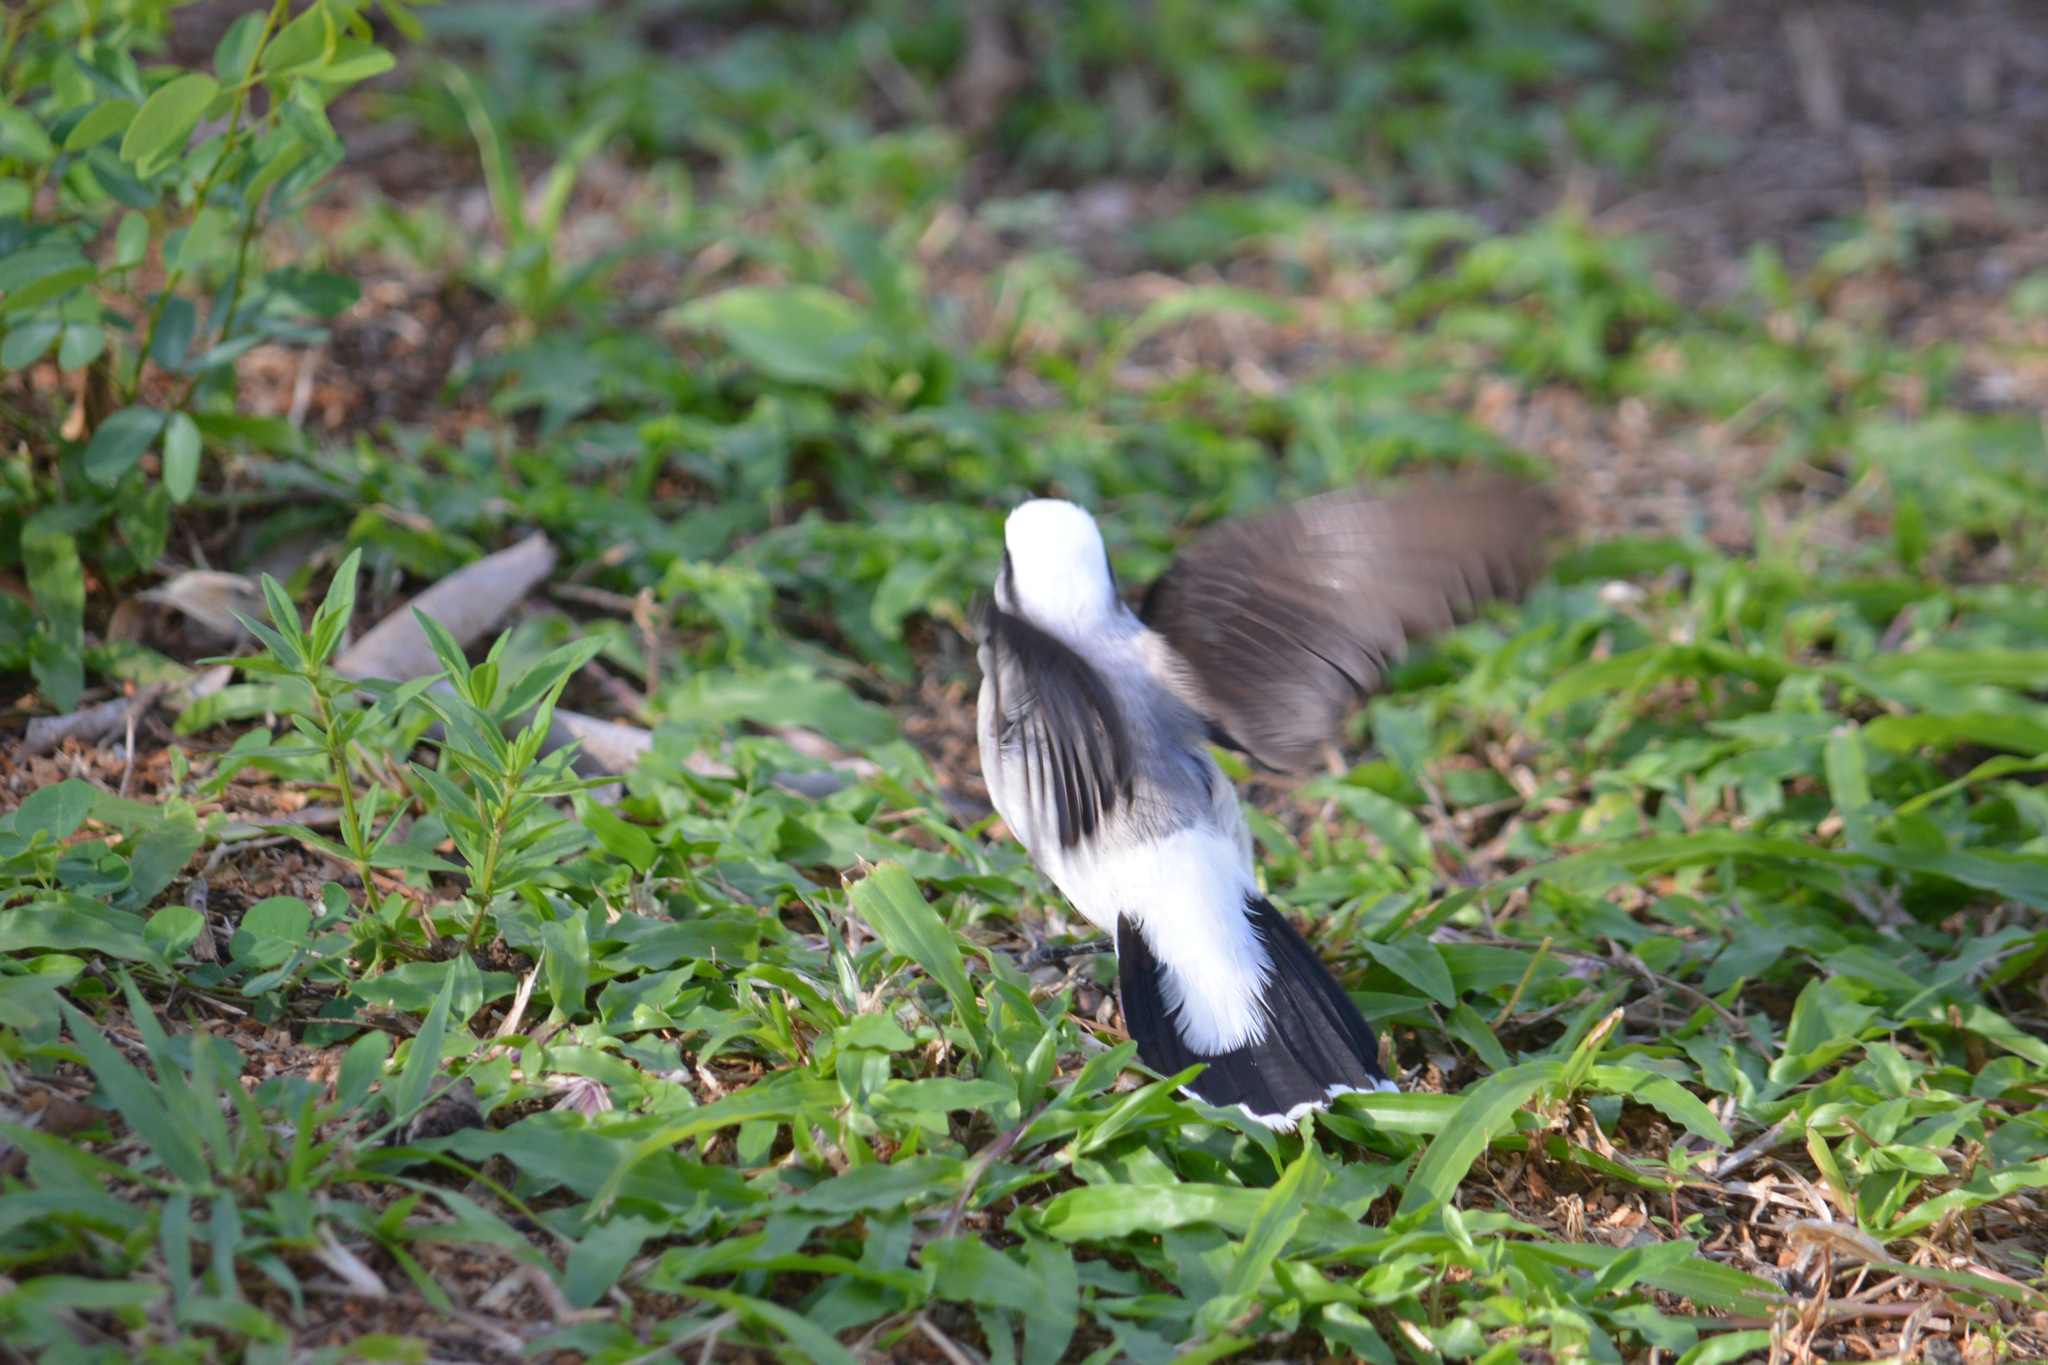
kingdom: Animalia
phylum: Chordata
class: Aves
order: Passeriformes
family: Tyrannidae
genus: Fluvicola
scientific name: Fluvicola nengeta
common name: Masked water tyrant
